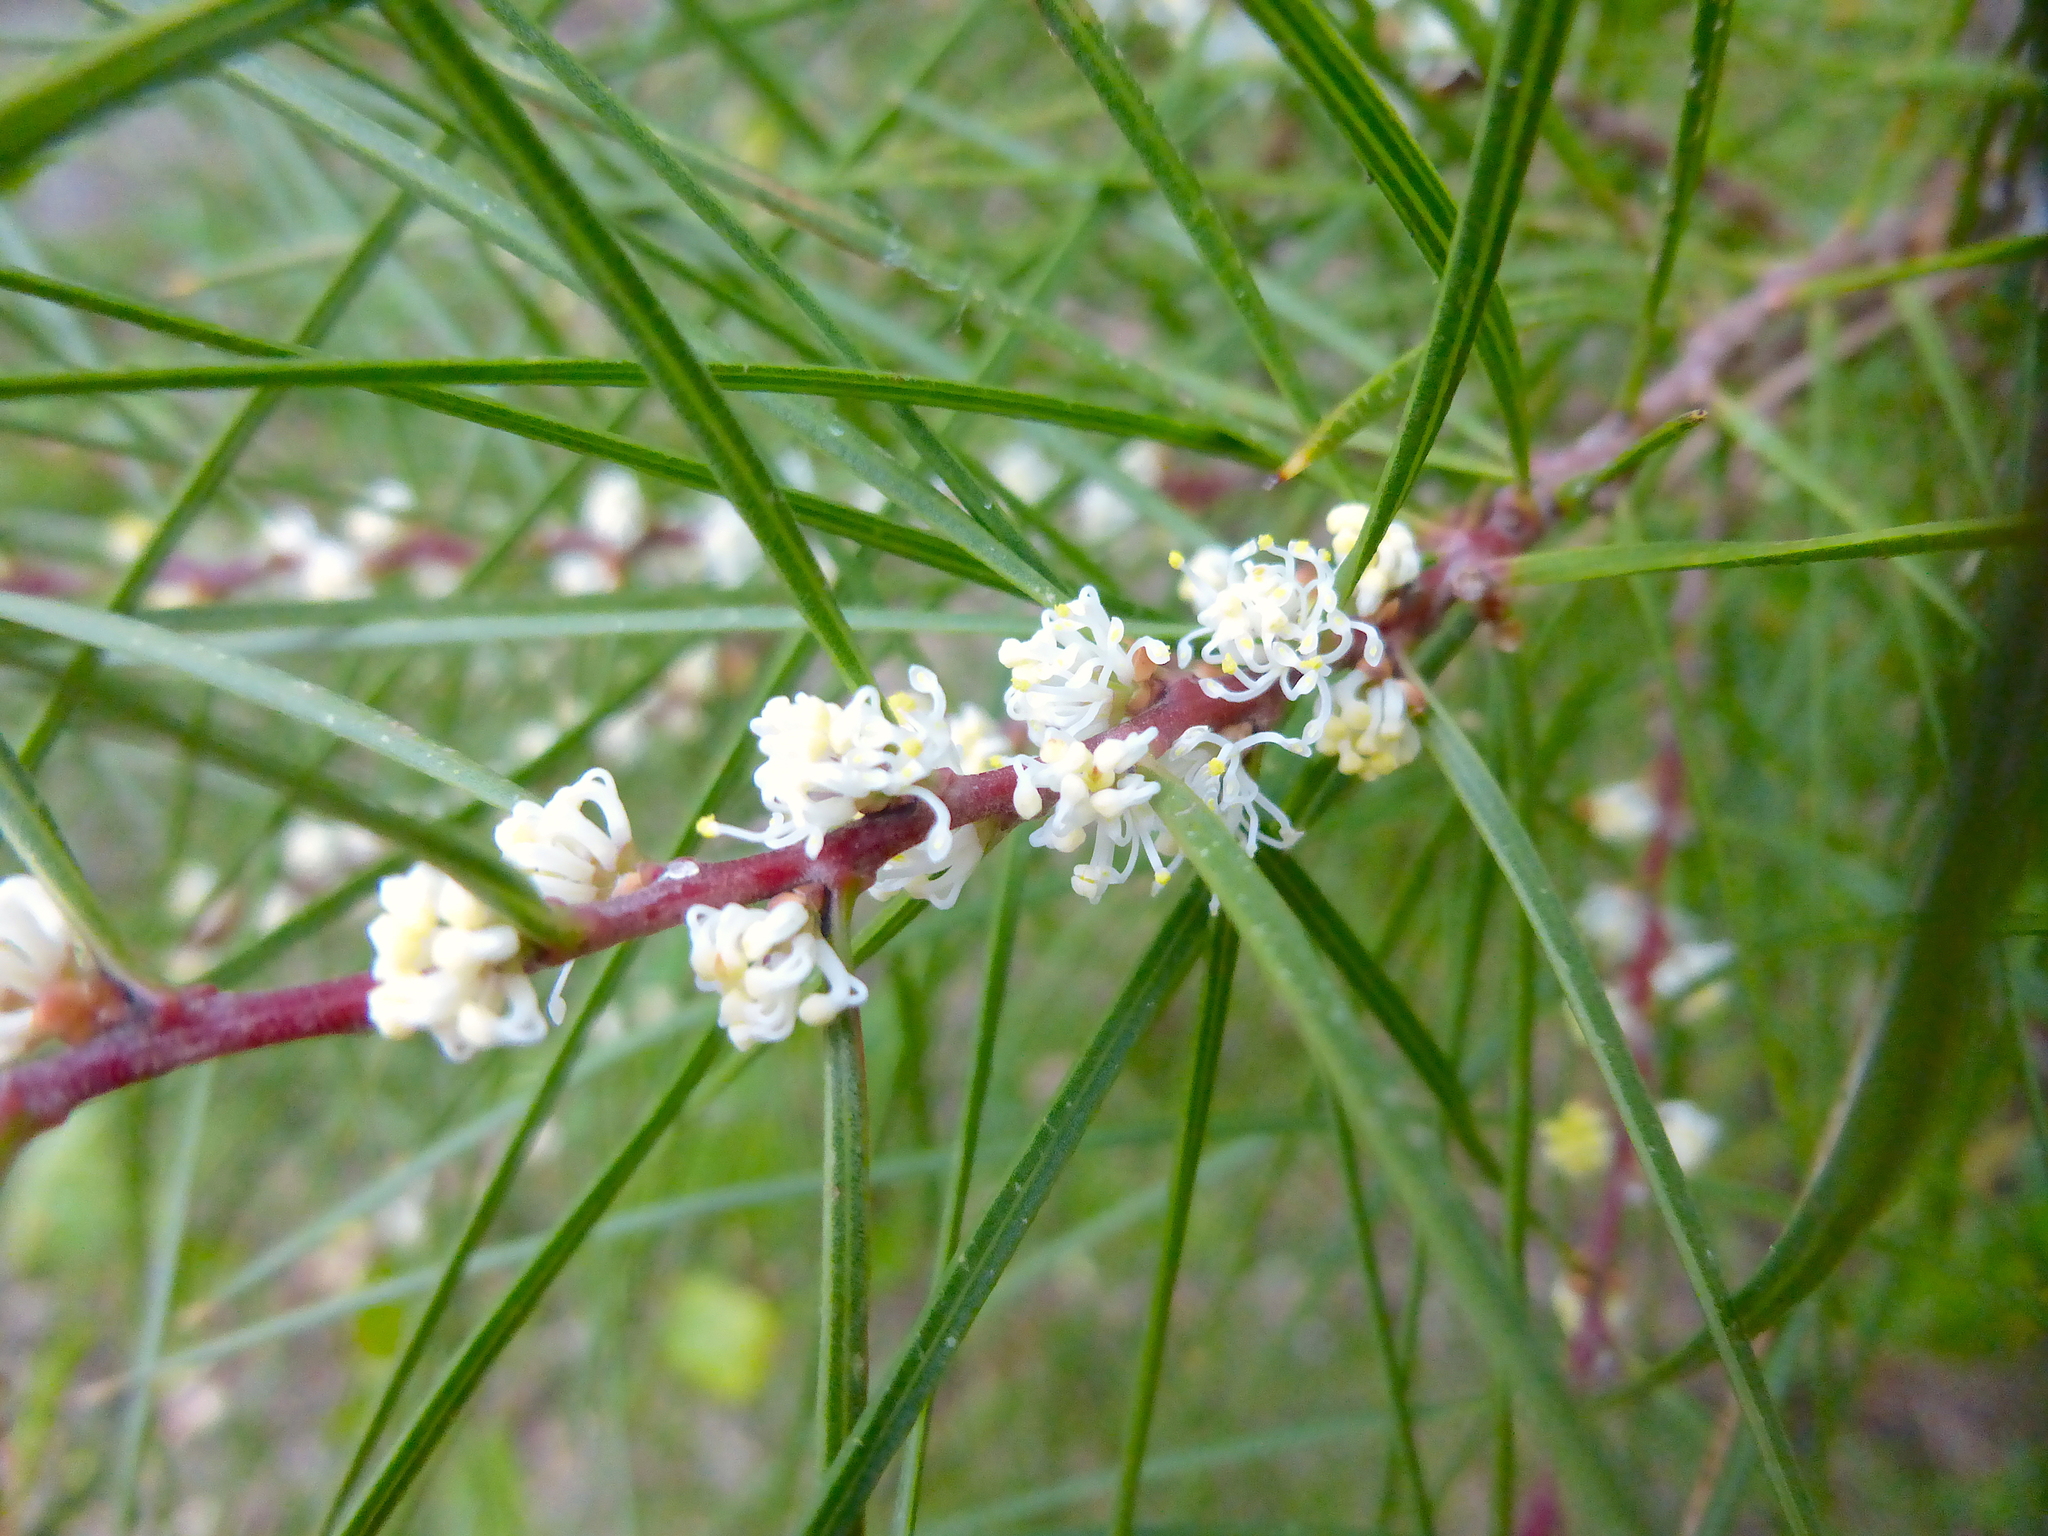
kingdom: Plantae
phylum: Tracheophyta
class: Magnoliopsida
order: Proteales
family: Proteaceae
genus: Hakea
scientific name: Hakea ulicina
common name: Furze hakea
